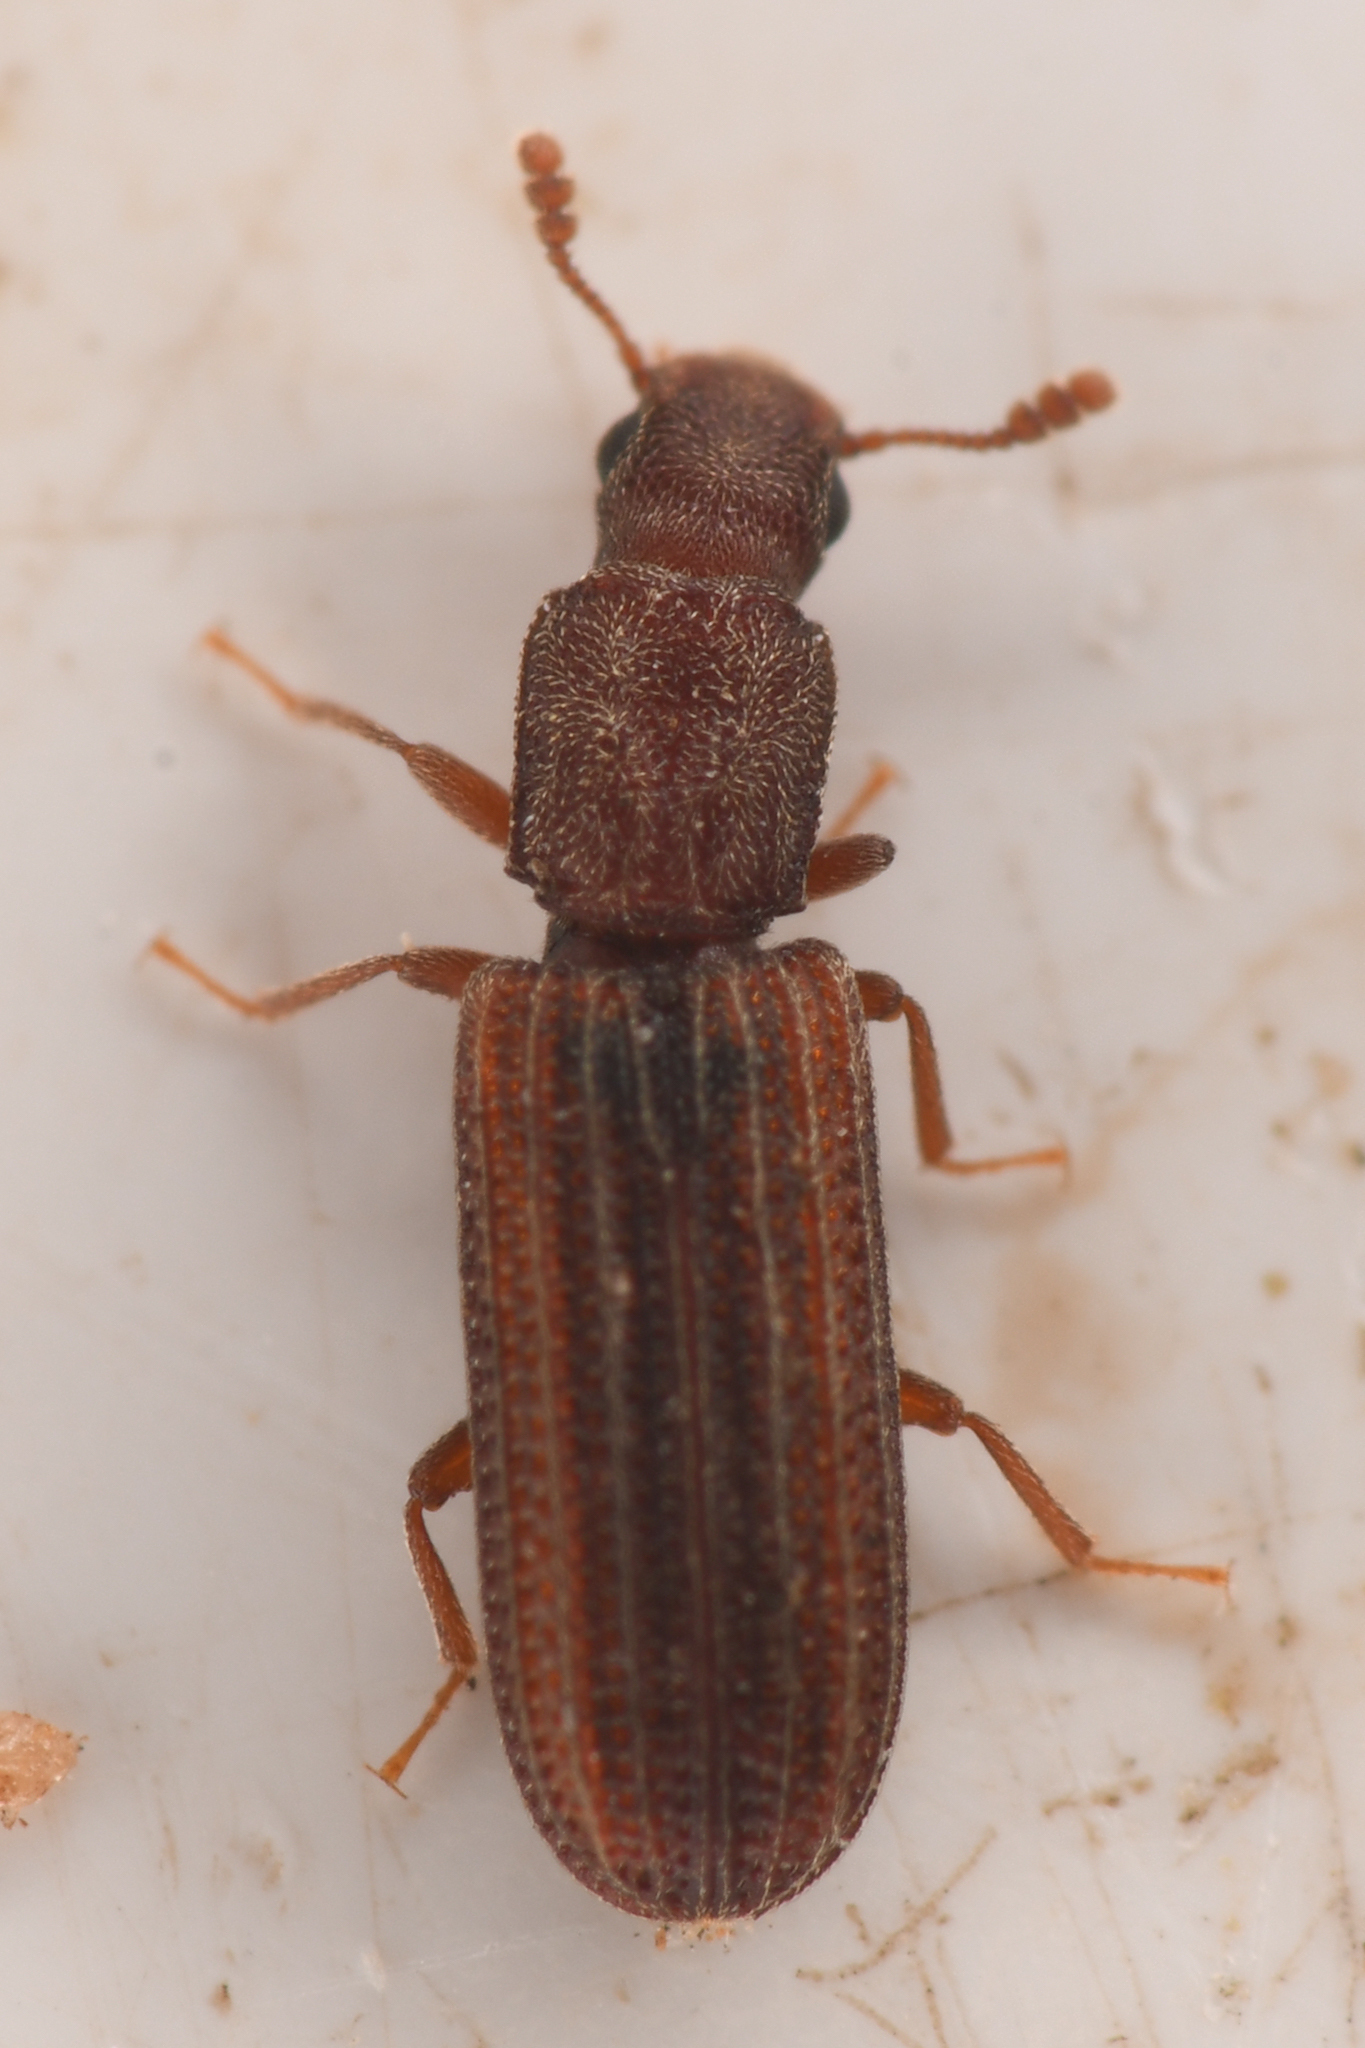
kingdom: Animalia
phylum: Arthropoda
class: Insecta
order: Coleoptera
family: Zopheridae
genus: Lasconotus
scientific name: Lasconotus vegrandis
